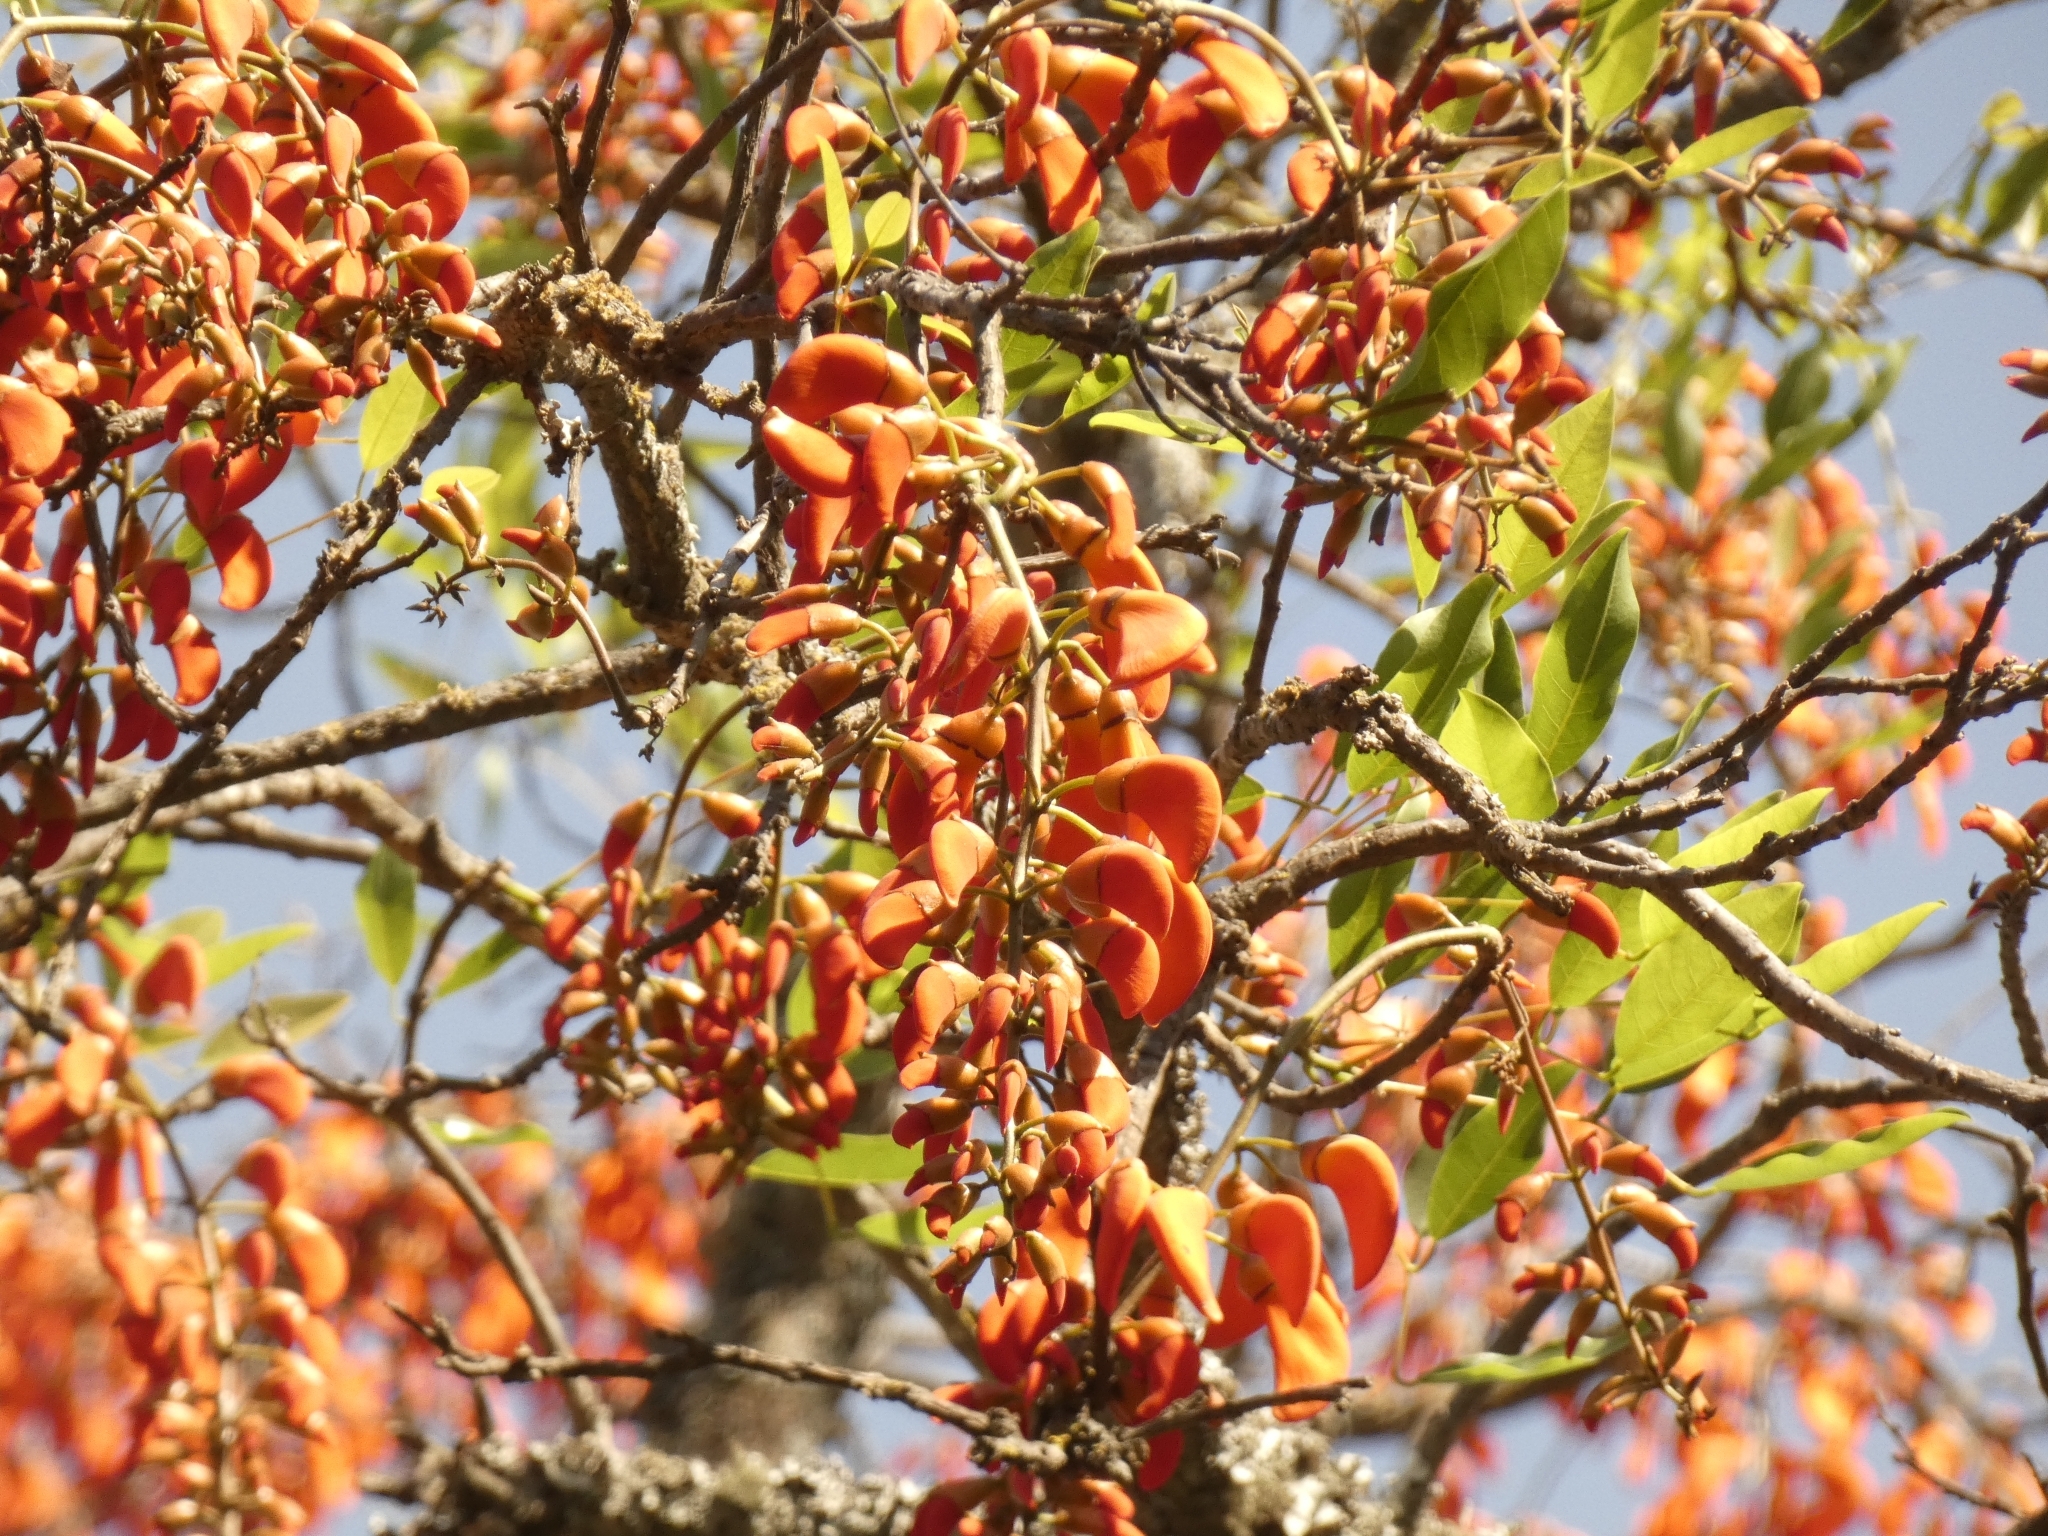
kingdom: Plantae
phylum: Tracheophyta
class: Magnoliopsida
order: Fabales
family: Fabaceae
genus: Erythrina
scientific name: Erythrina falcata
